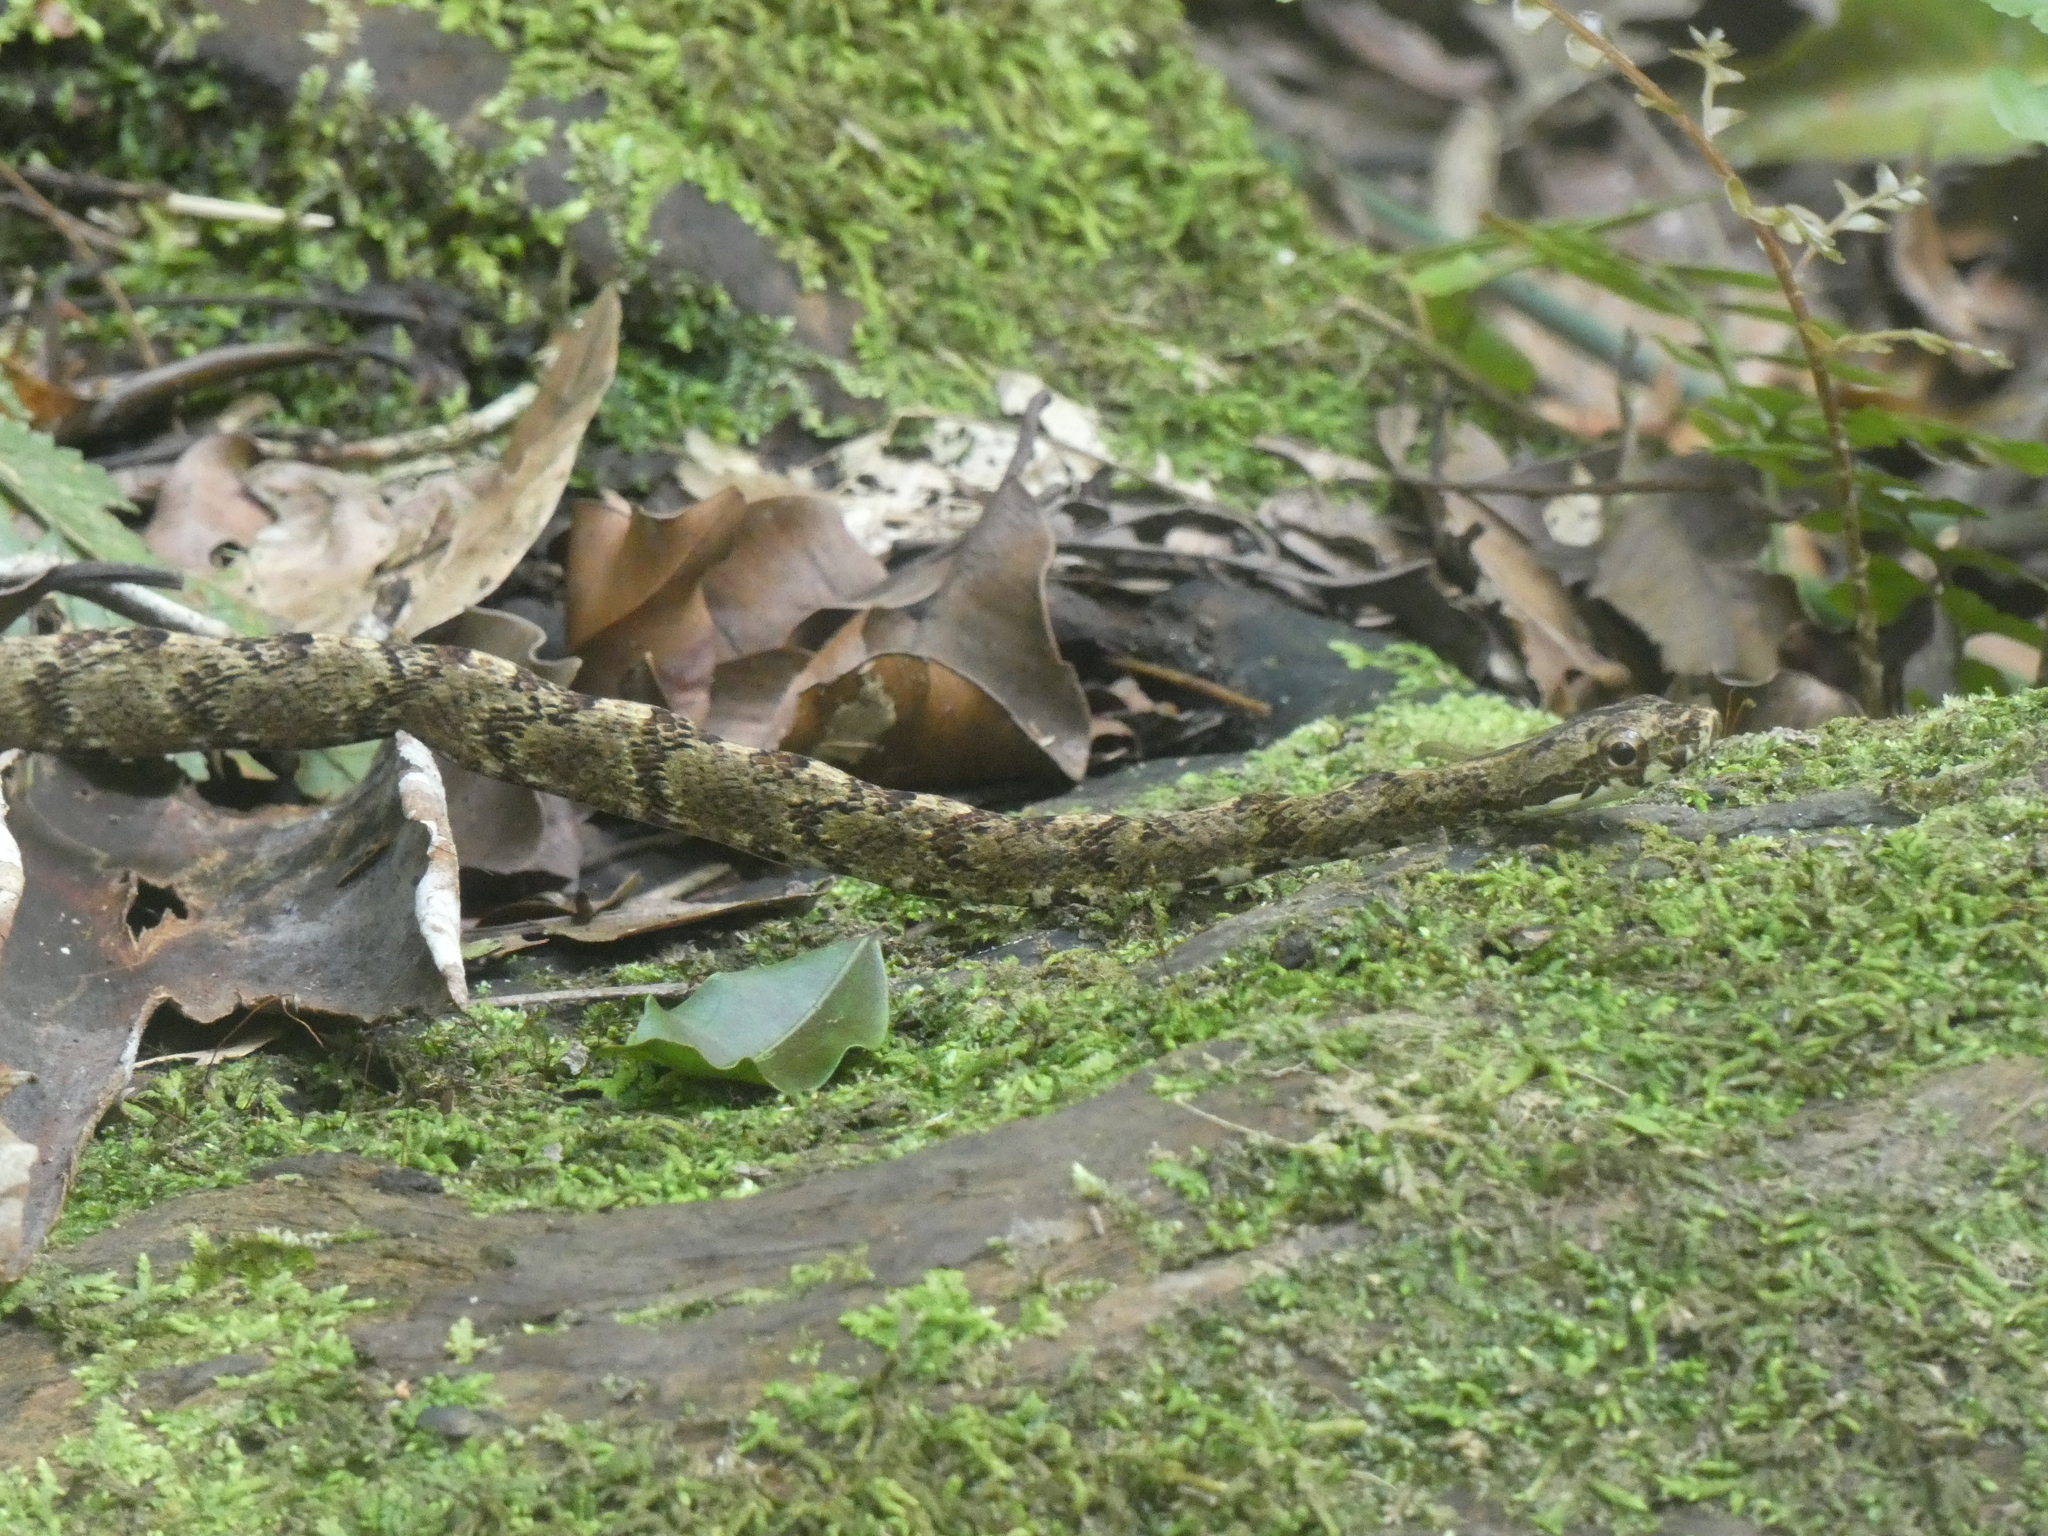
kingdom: Animalia
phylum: Chordata
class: Squamata
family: Colubridae
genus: Chironius
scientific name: Chironius quadricarinatus
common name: Central sipo
